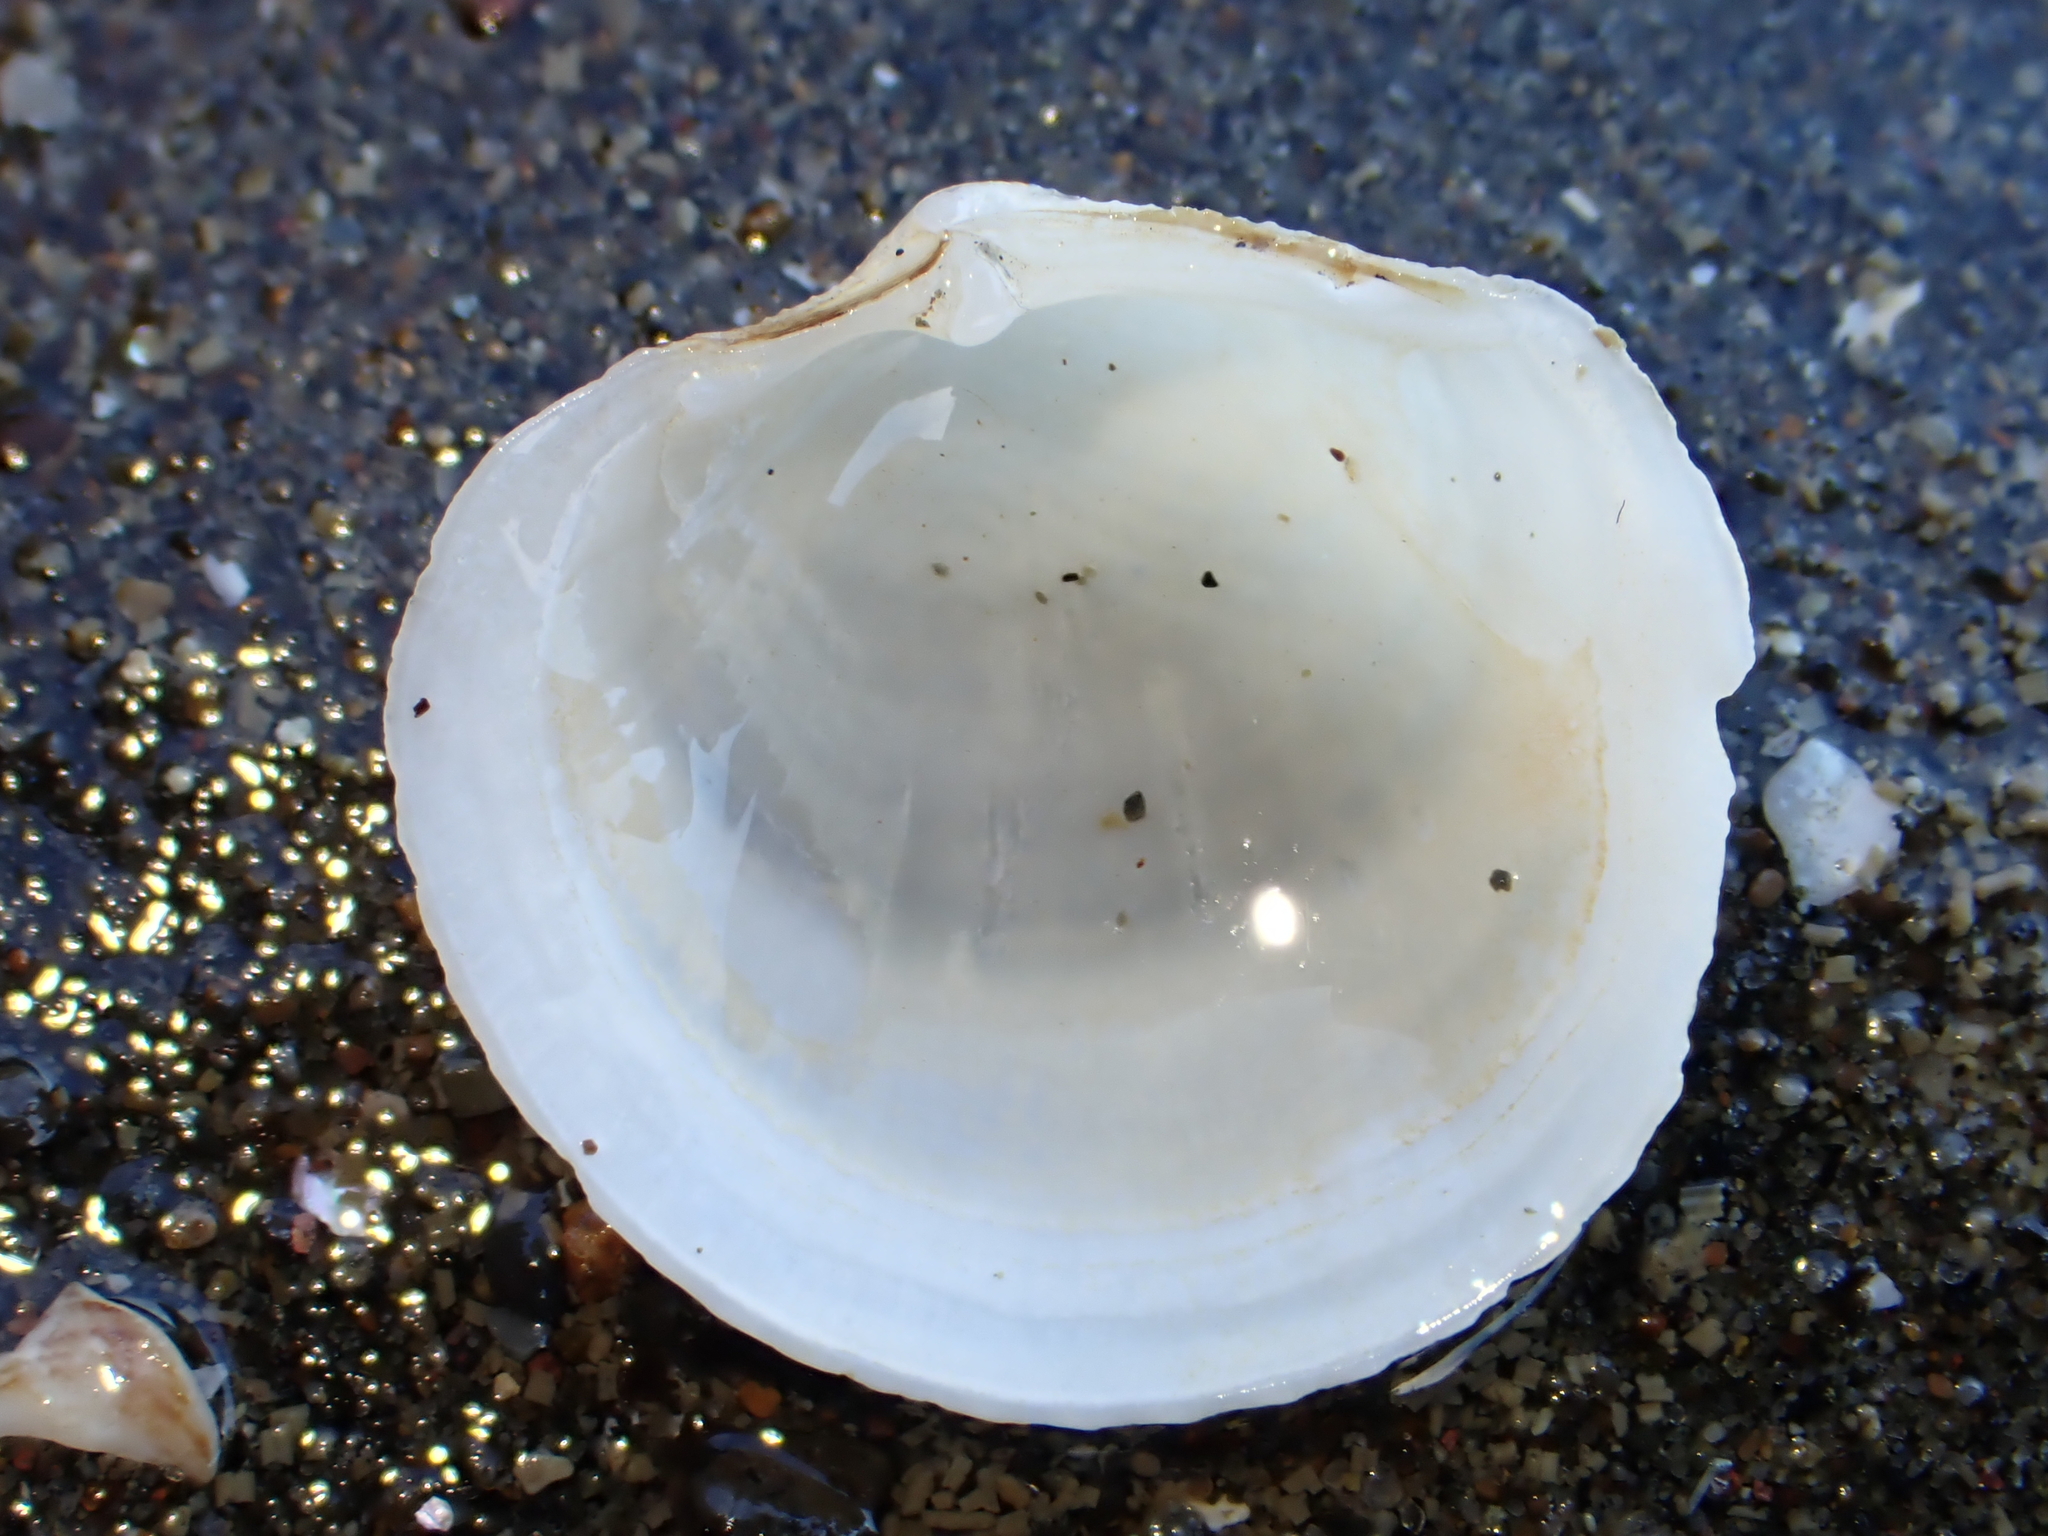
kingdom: Animalia
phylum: Mollusca
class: Bivalvia
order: Lucinida
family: Lucinidae
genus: Divalucina
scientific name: Divalucina cumingi
